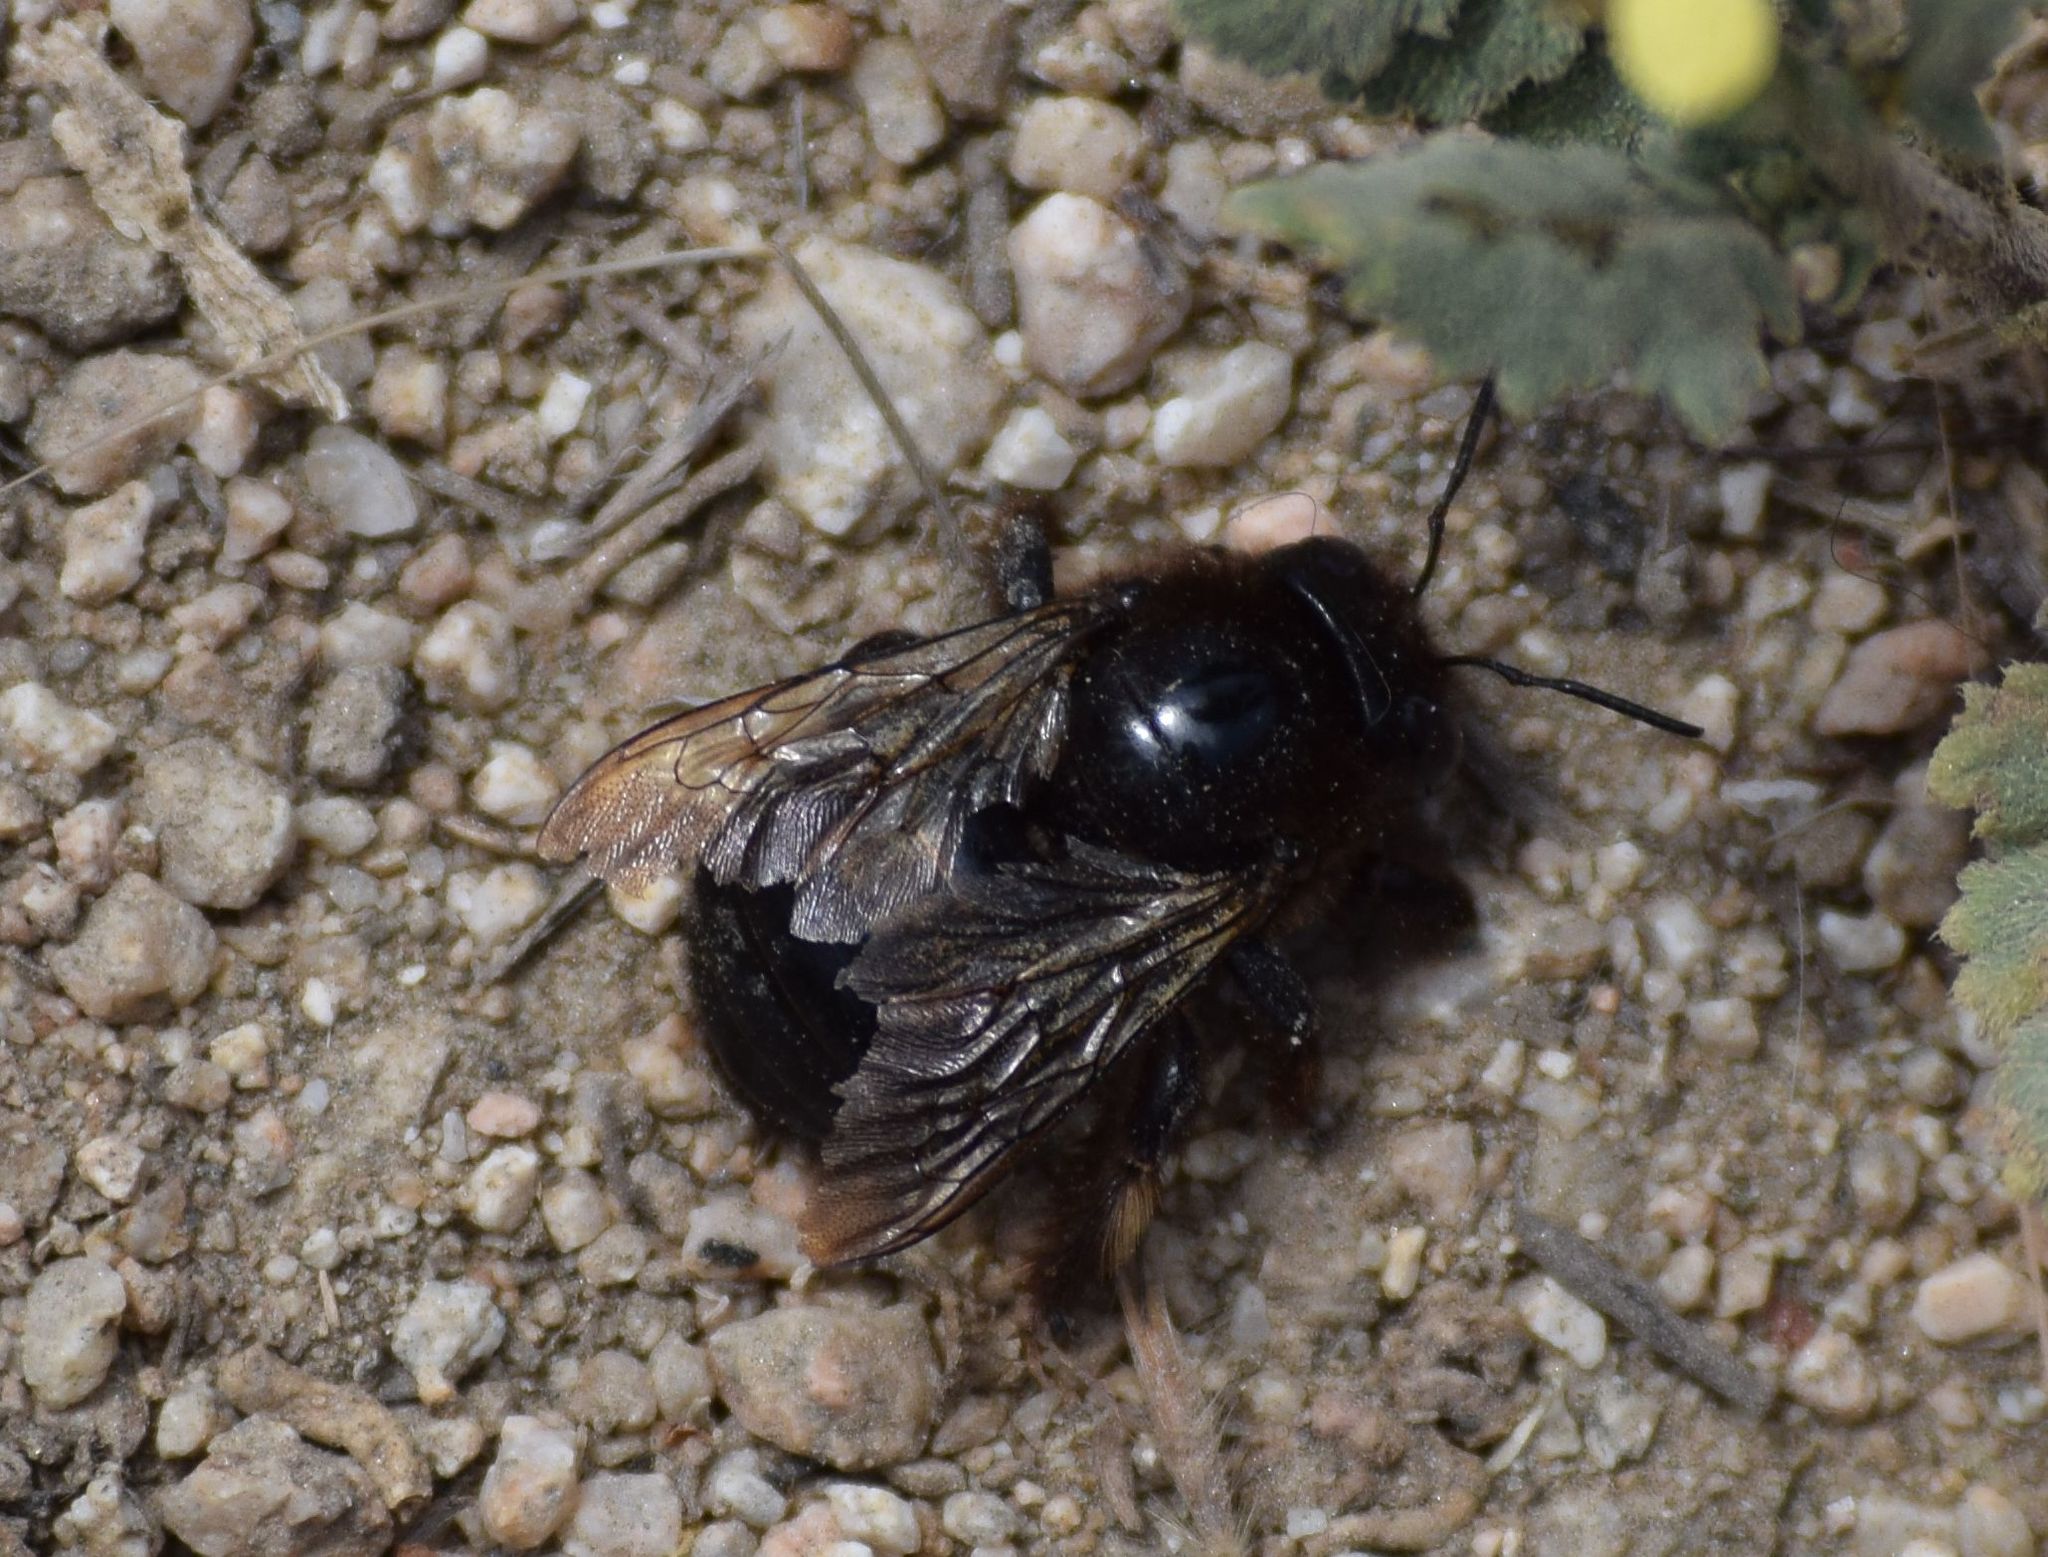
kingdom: Animalia
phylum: Arthropoda
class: Insecta
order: Hymenoptera
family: Apidae
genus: Xylocopa
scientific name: Xylocopa tabaniformis
